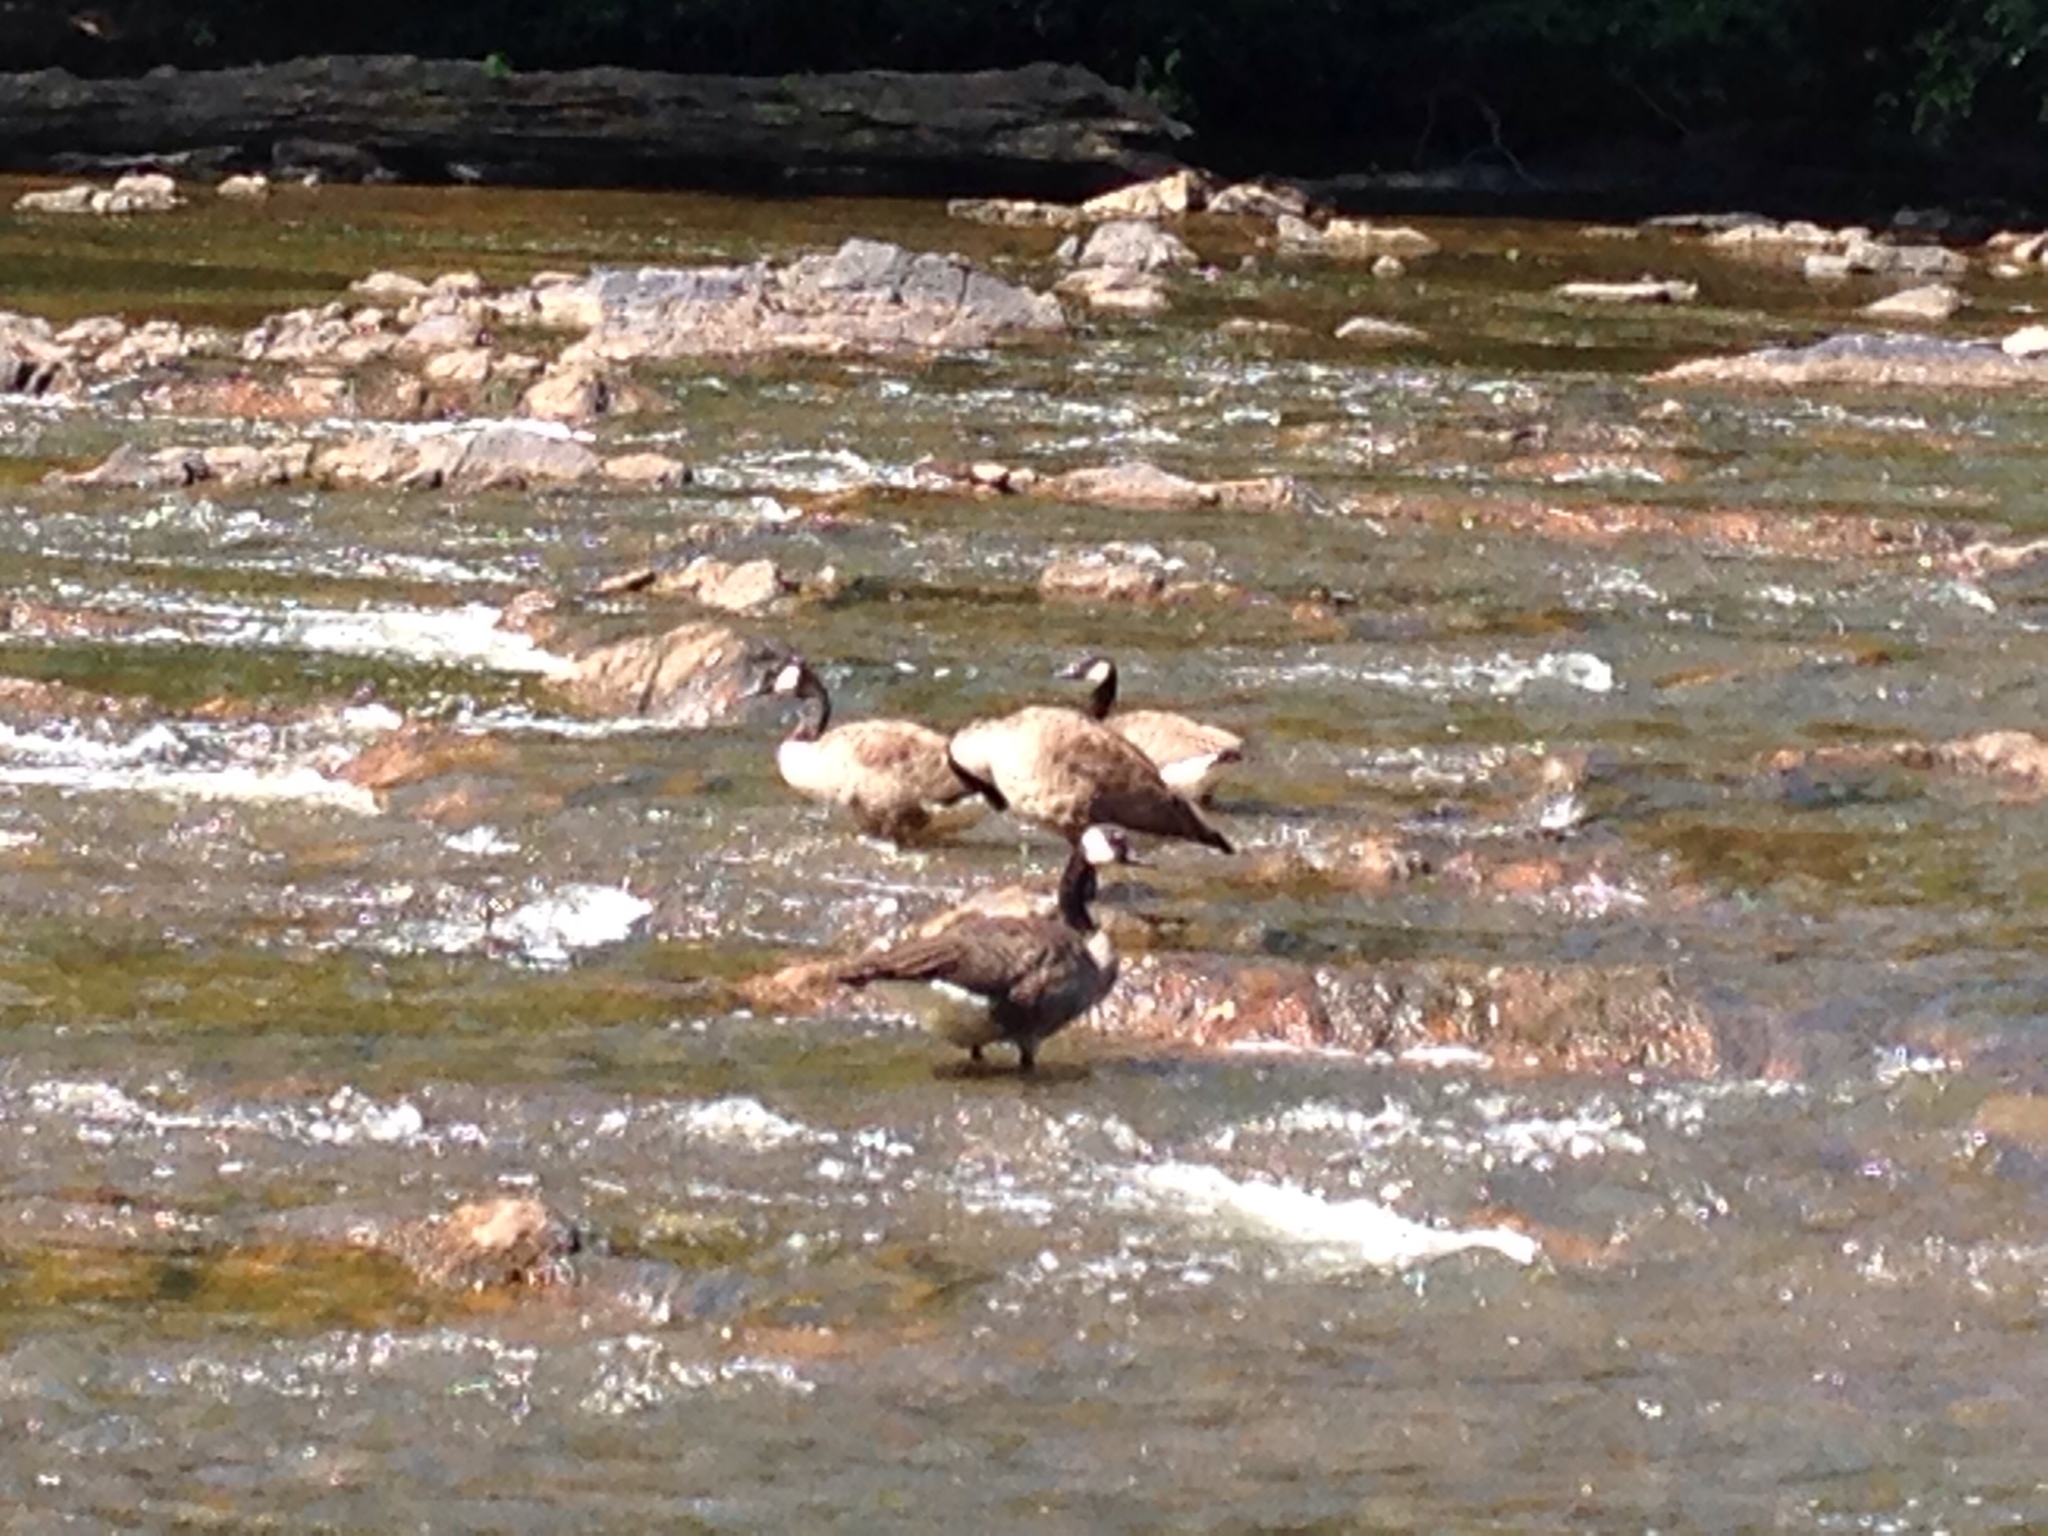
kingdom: Animalia
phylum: Chordata
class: Aves
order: Anseriformes
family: Anatidae
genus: Branta
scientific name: Branta canadensis
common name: Canada goose
